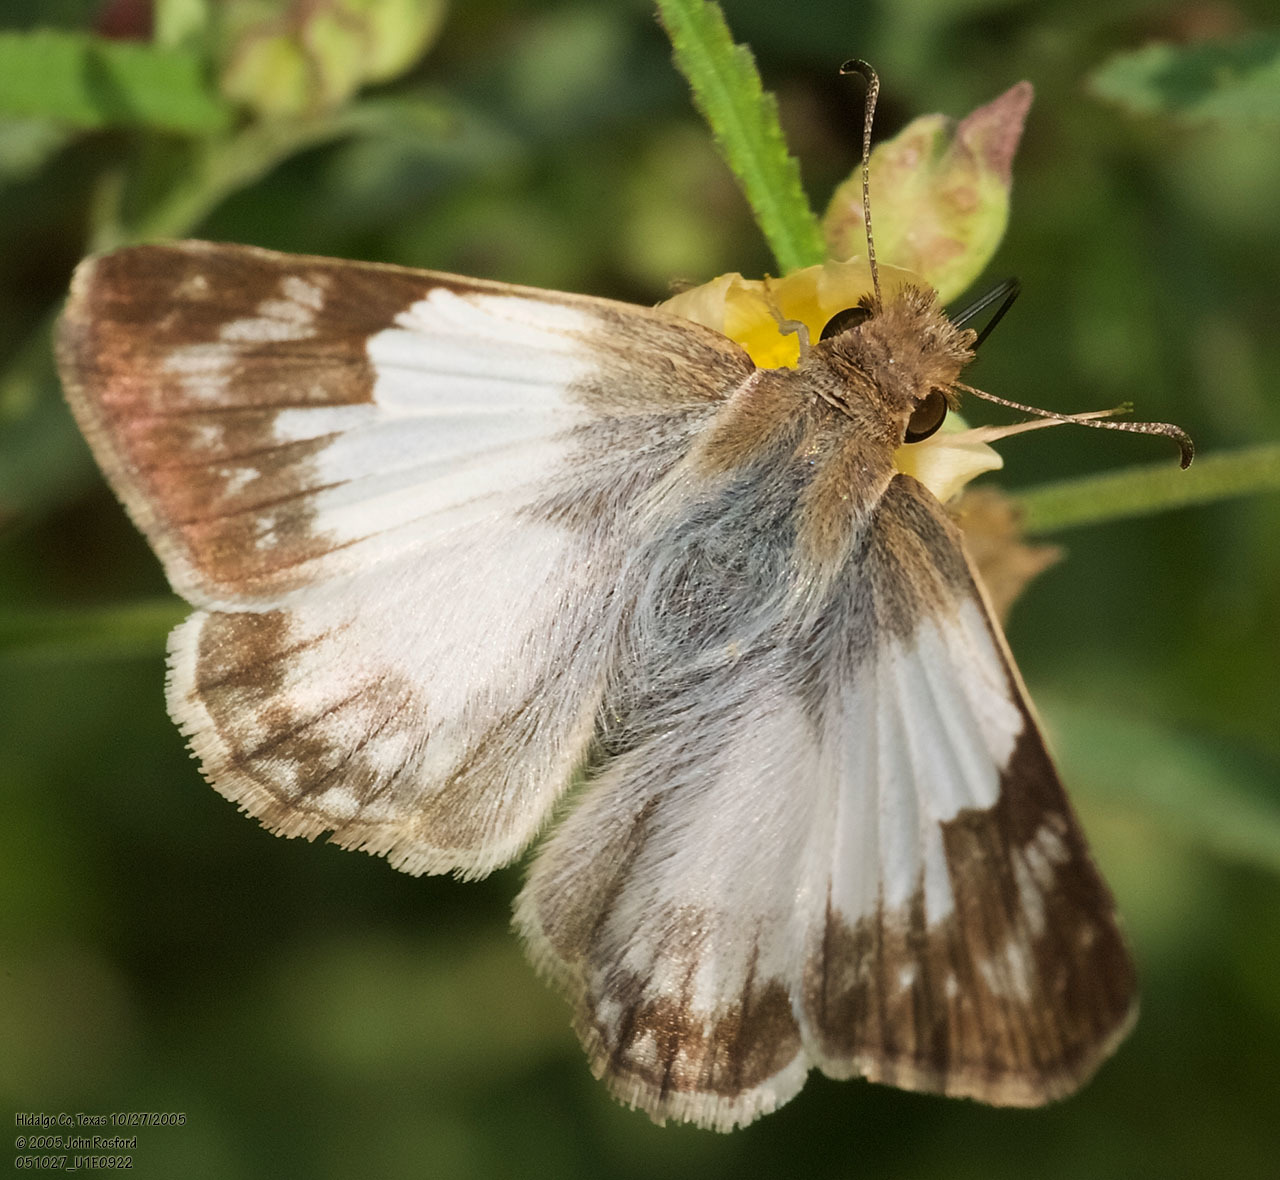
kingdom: Animalia
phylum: Arthropoda
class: Insecta
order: Lepidoptera
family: Hesperiidae
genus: Heliopetes
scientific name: Heliopetes laviana
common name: Laviana white-skipper
